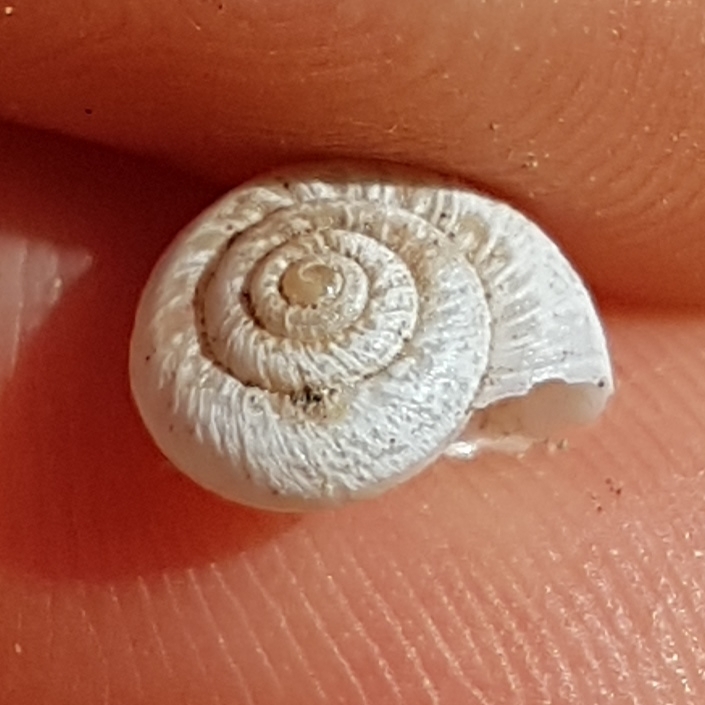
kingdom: Animalia
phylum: Mollusca
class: Gastropoda
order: Stylommatophora
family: Geomitridae
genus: Xerotricha
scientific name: Xerotricha apicina
